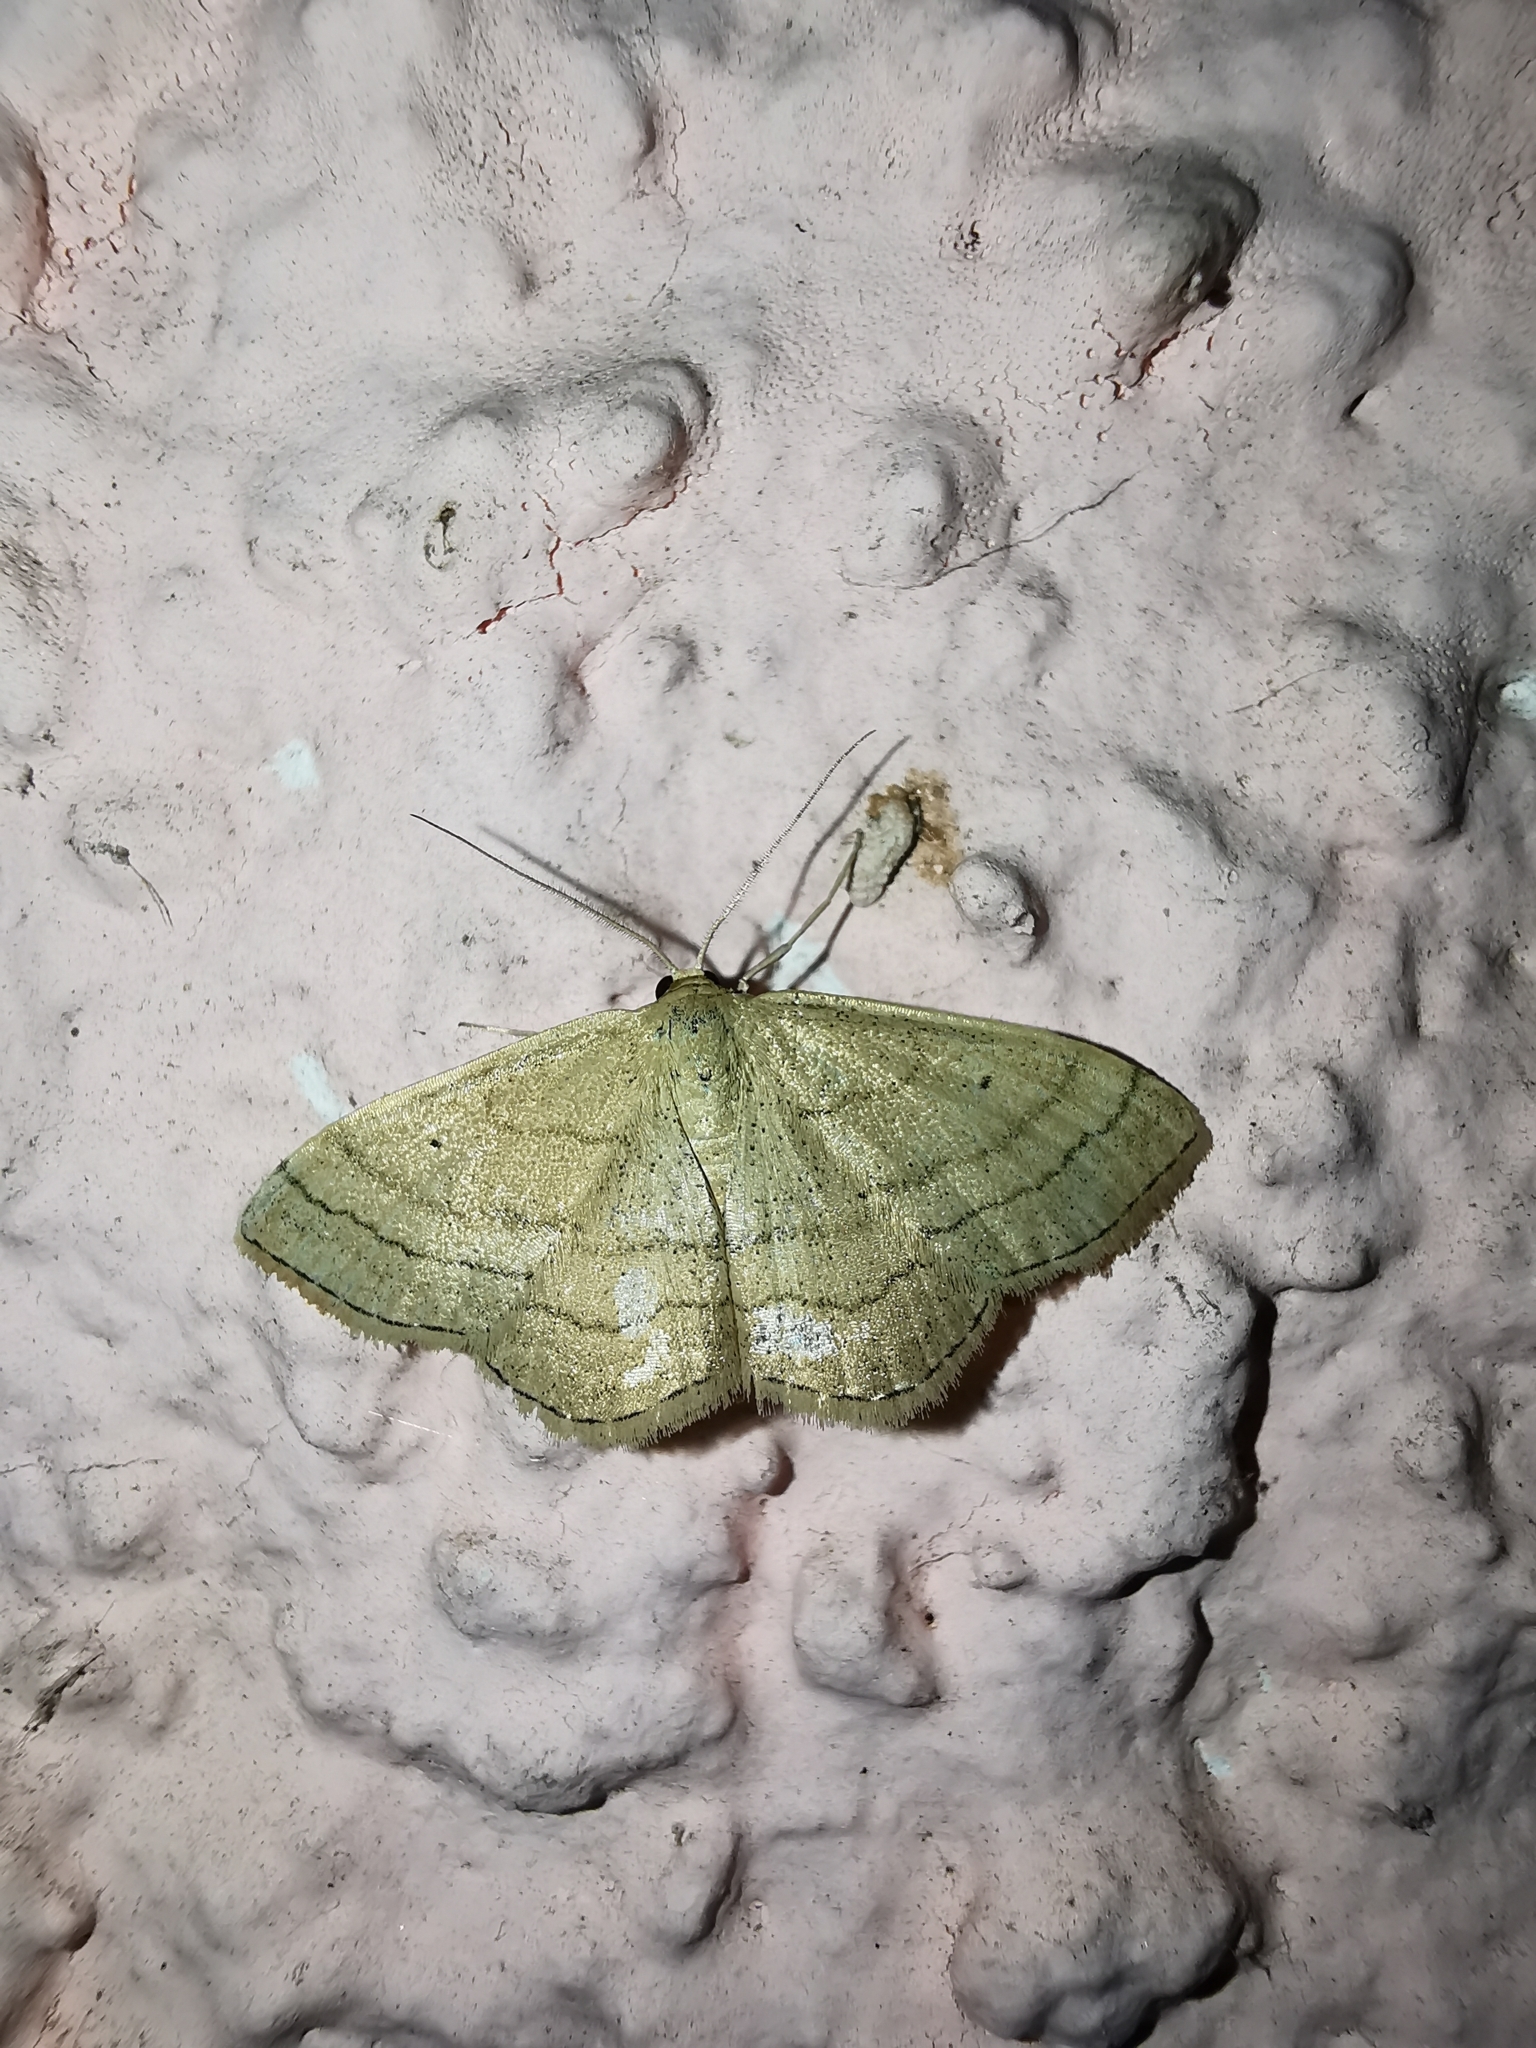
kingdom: Animalia
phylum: Arthropoda
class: Insecta
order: Lepidoptera
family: Geometridae
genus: Scopula
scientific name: Scopula rubiginata
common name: Tawny wave
